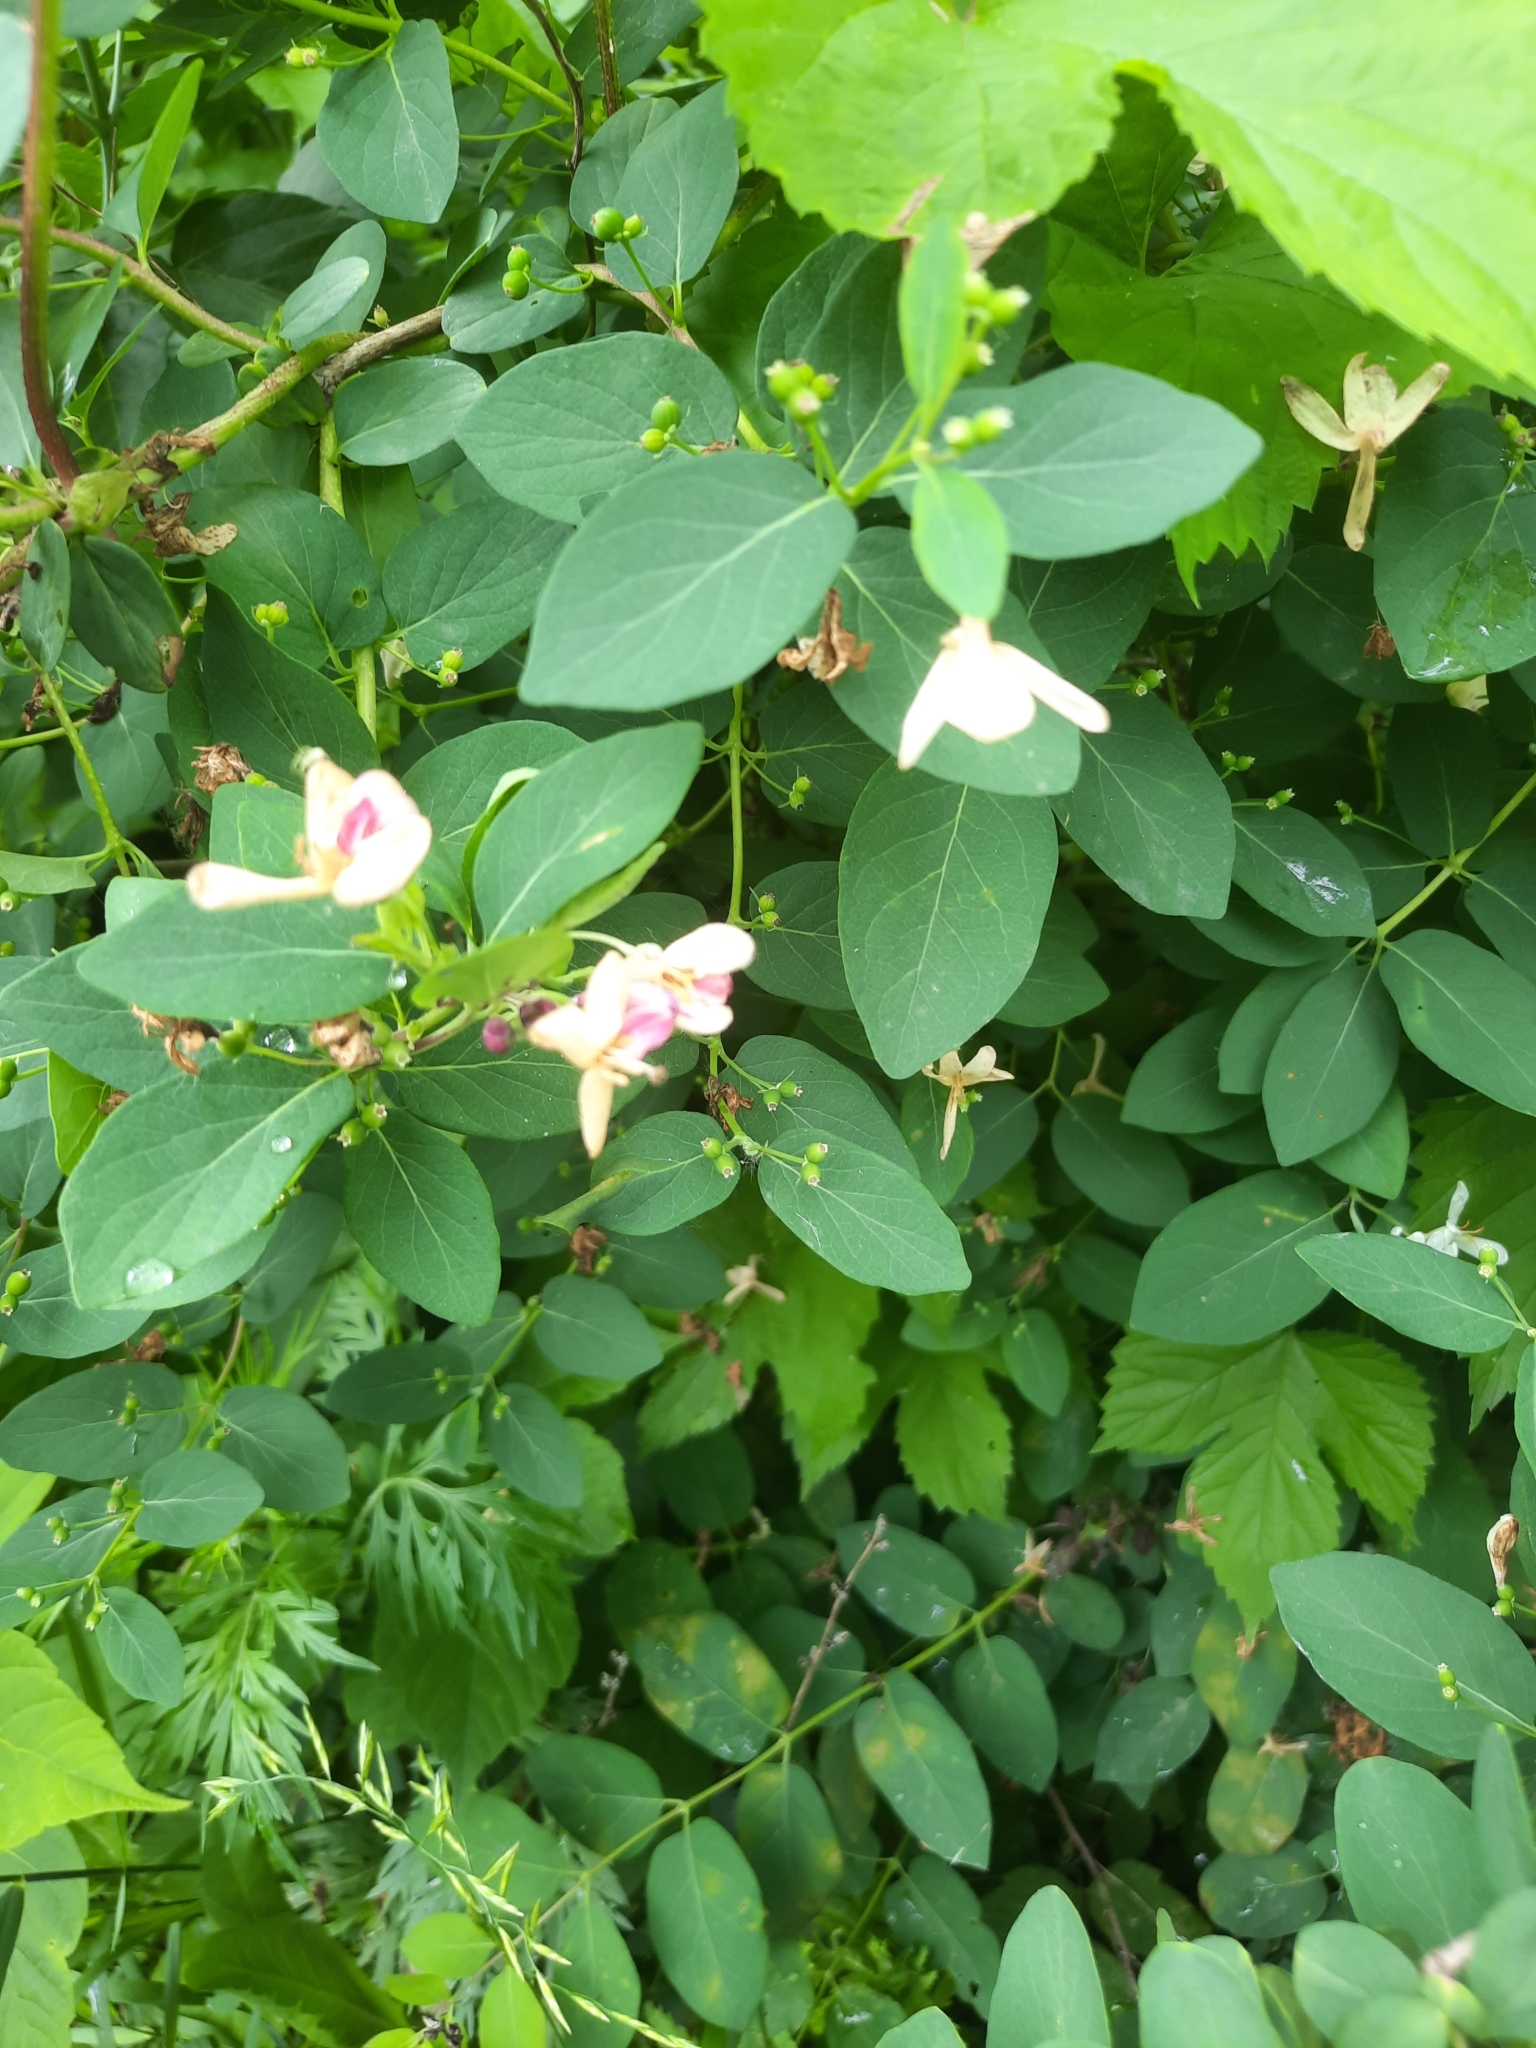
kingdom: Plantae
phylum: Tracheophyta
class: Magnoliopsida
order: Dipsacales
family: Caprifoliaceae
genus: Lonicera
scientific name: Lonicera tatarica
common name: Tatarian honeysuckle
